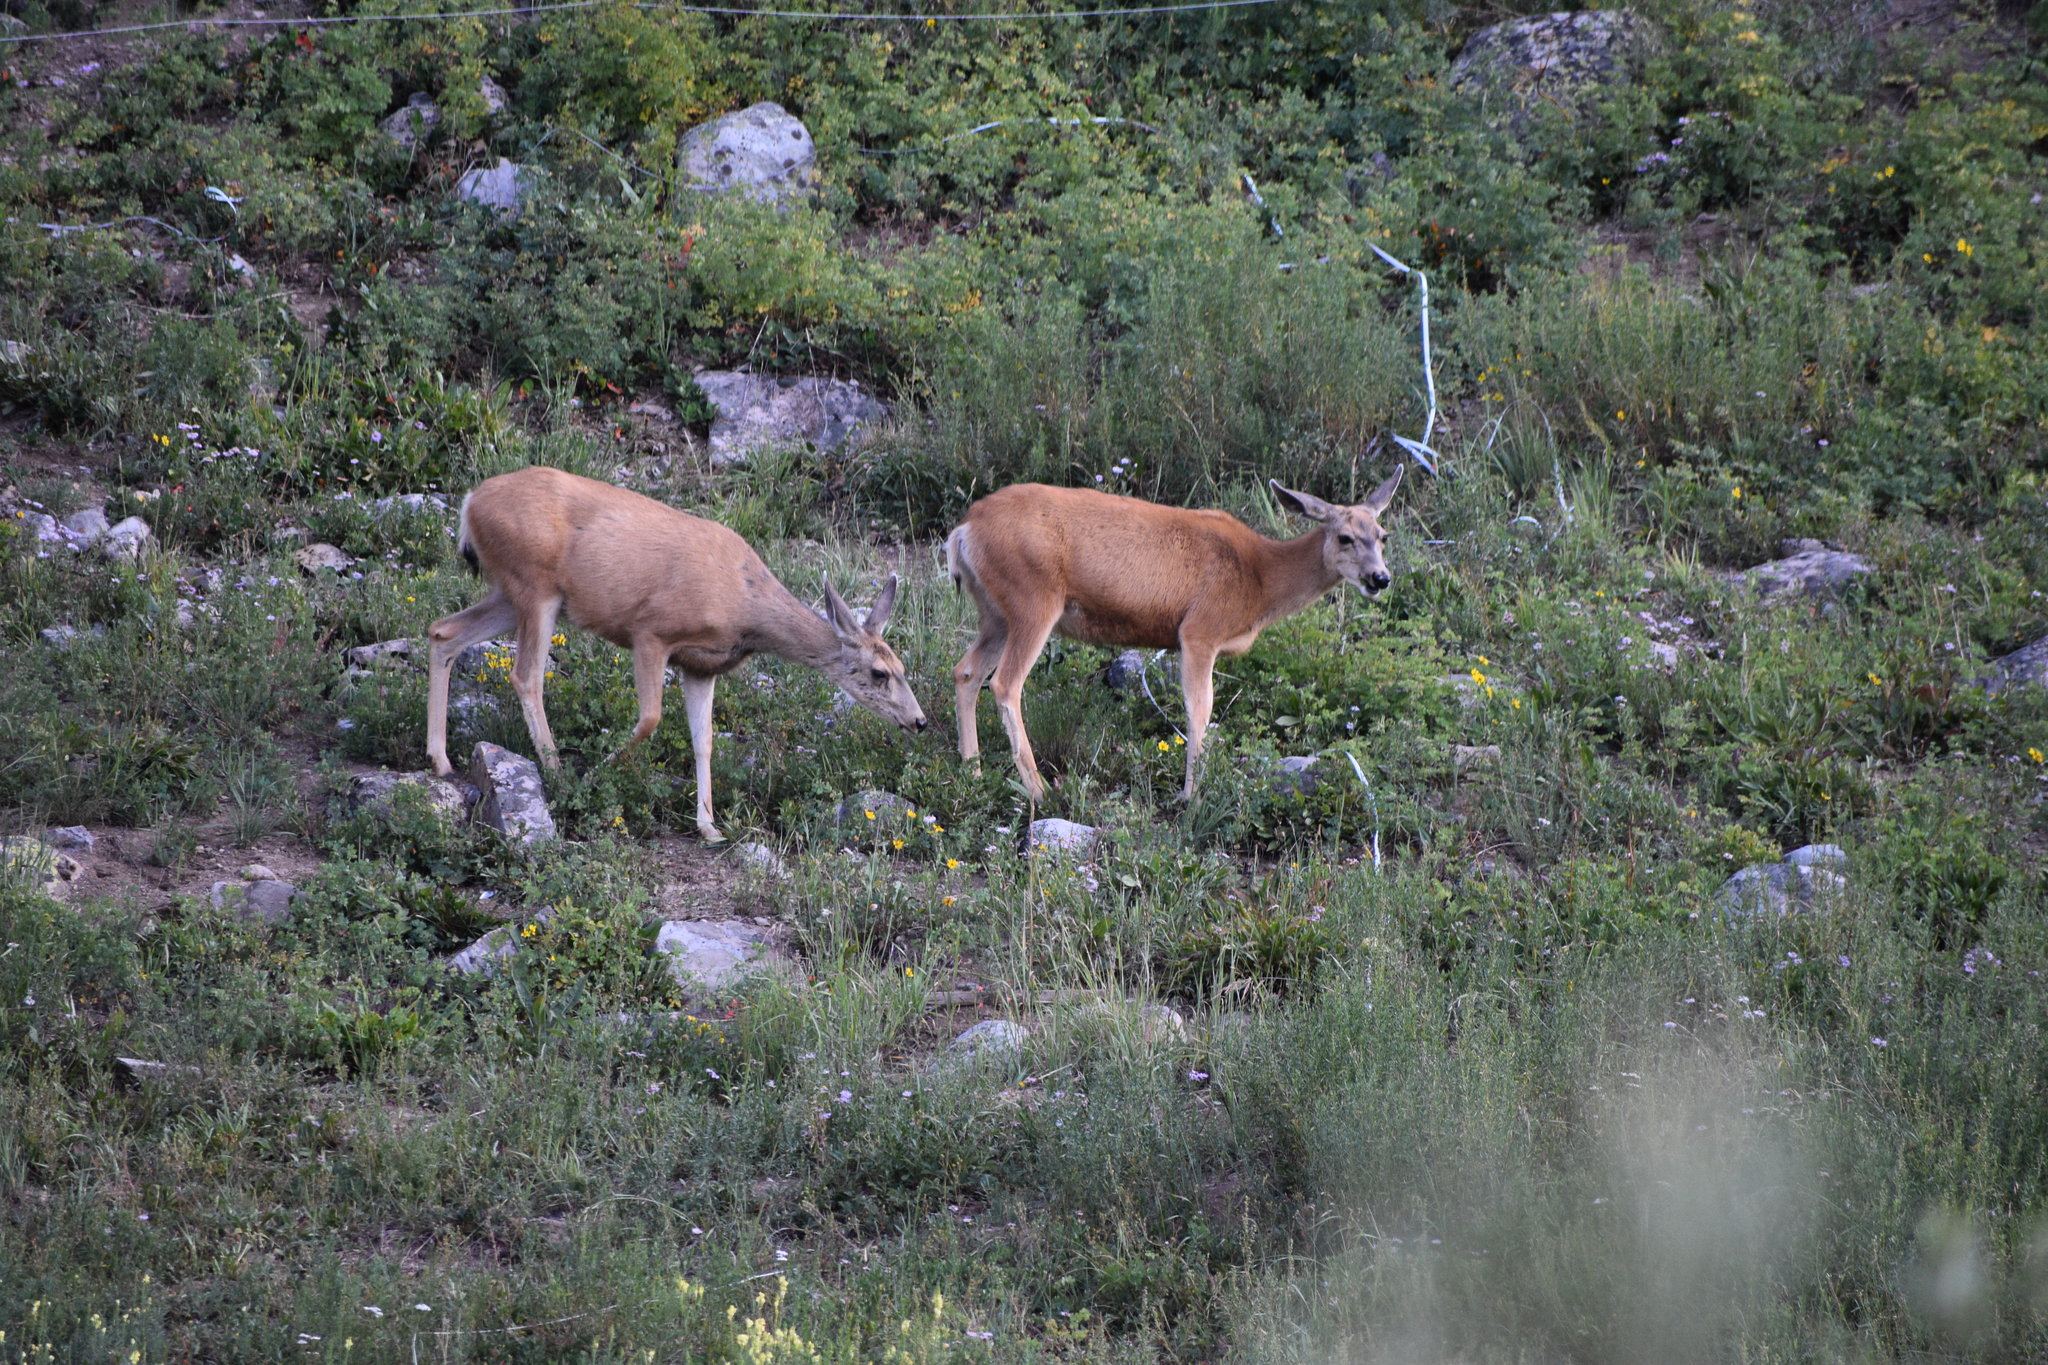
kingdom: Animalia
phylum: Chordata
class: Mammalia
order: Artiodactyla
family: Cervidae
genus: Odocoileus
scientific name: Odocoileus hemionus
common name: Mule deer
